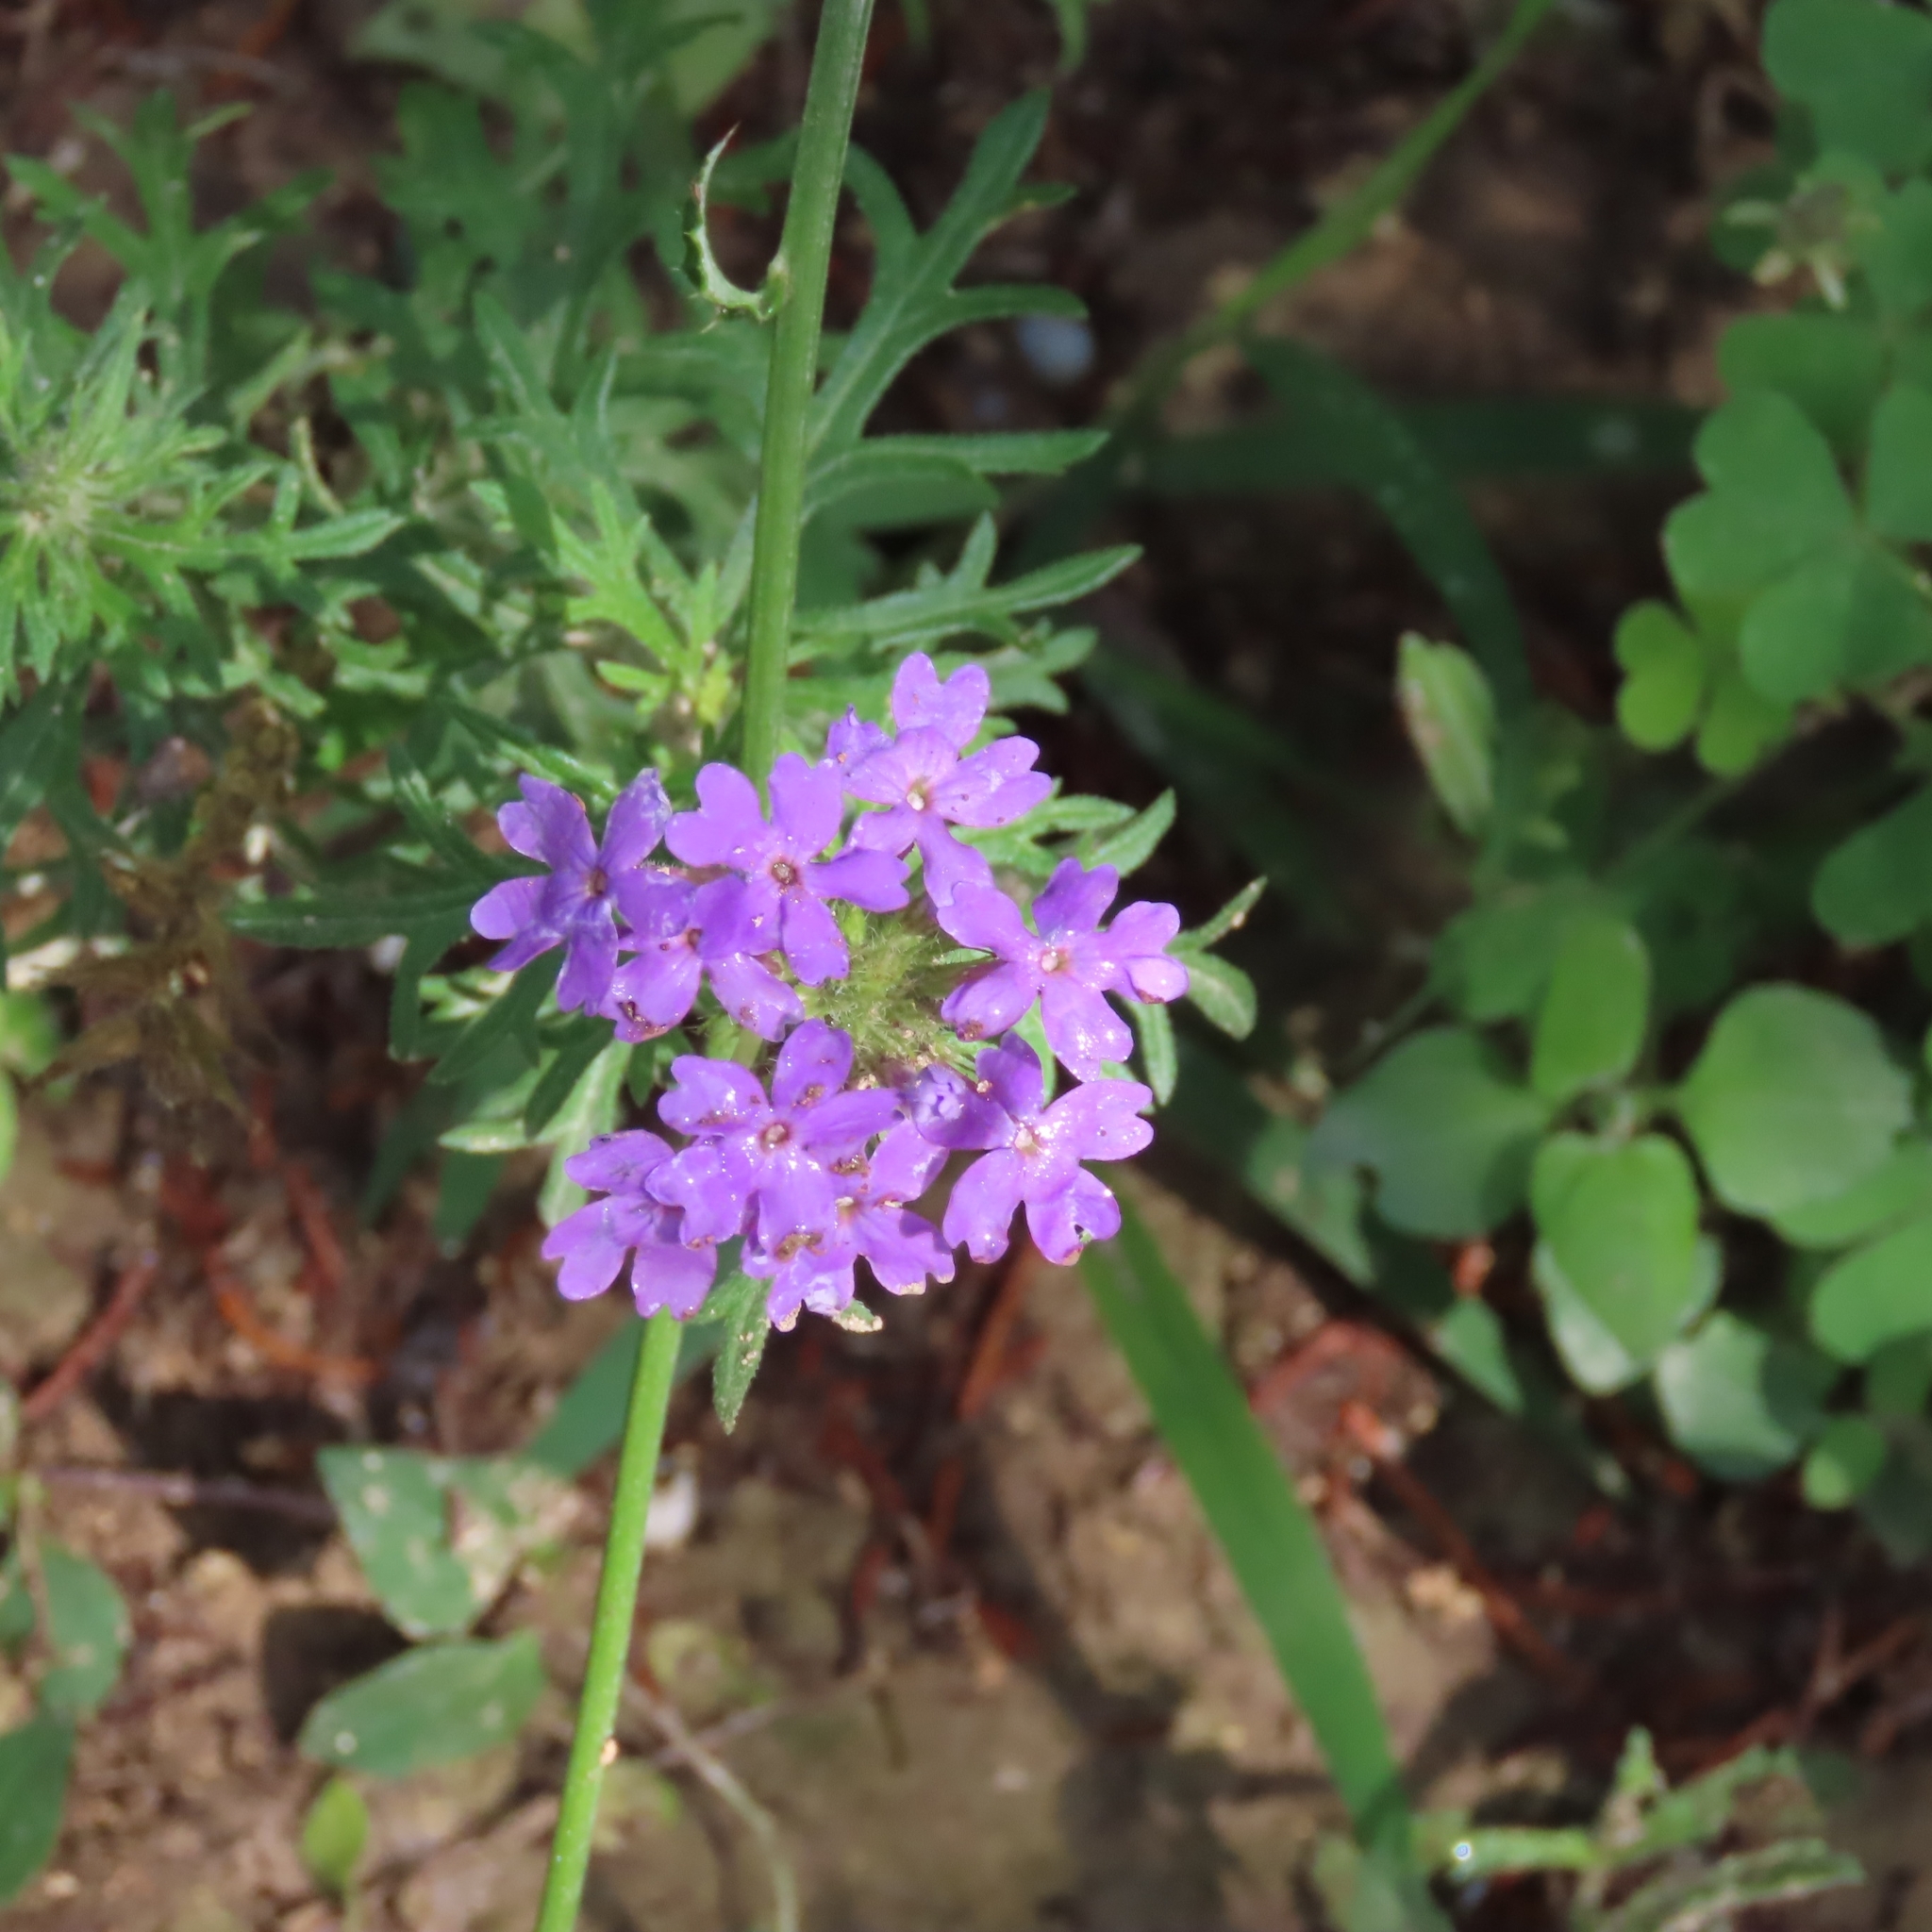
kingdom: Plantae
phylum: Tracheophyta
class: Magnoliopsida
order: Lamiales
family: Verbenaceae
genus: Verbena
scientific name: Verbena bipinnatifida
